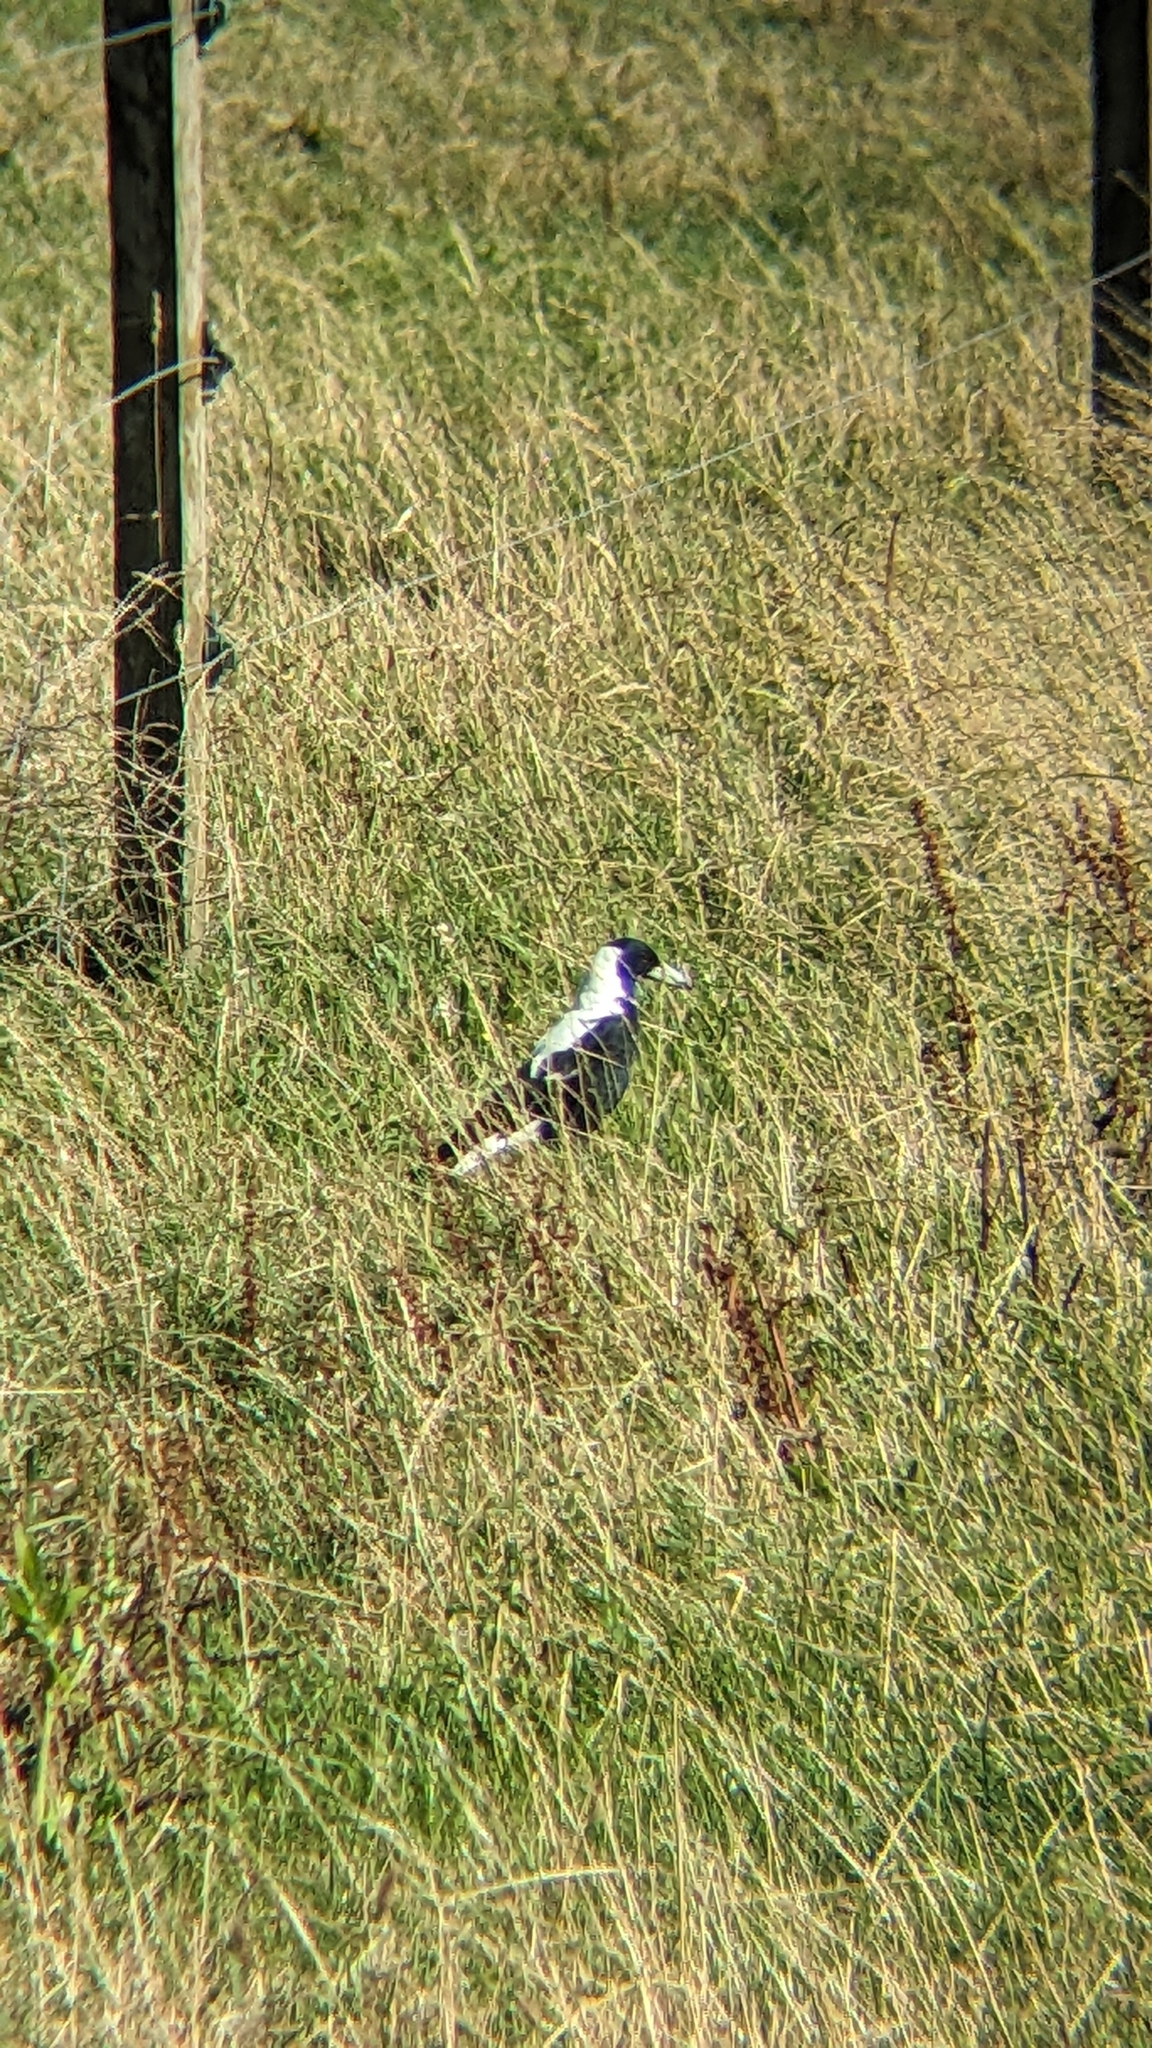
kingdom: Animalia
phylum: Chordata
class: Aves
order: Passeriformes
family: Cracticidae
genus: Gymnorhina
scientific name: Gymnorhina tibicen
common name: Australian magpie
